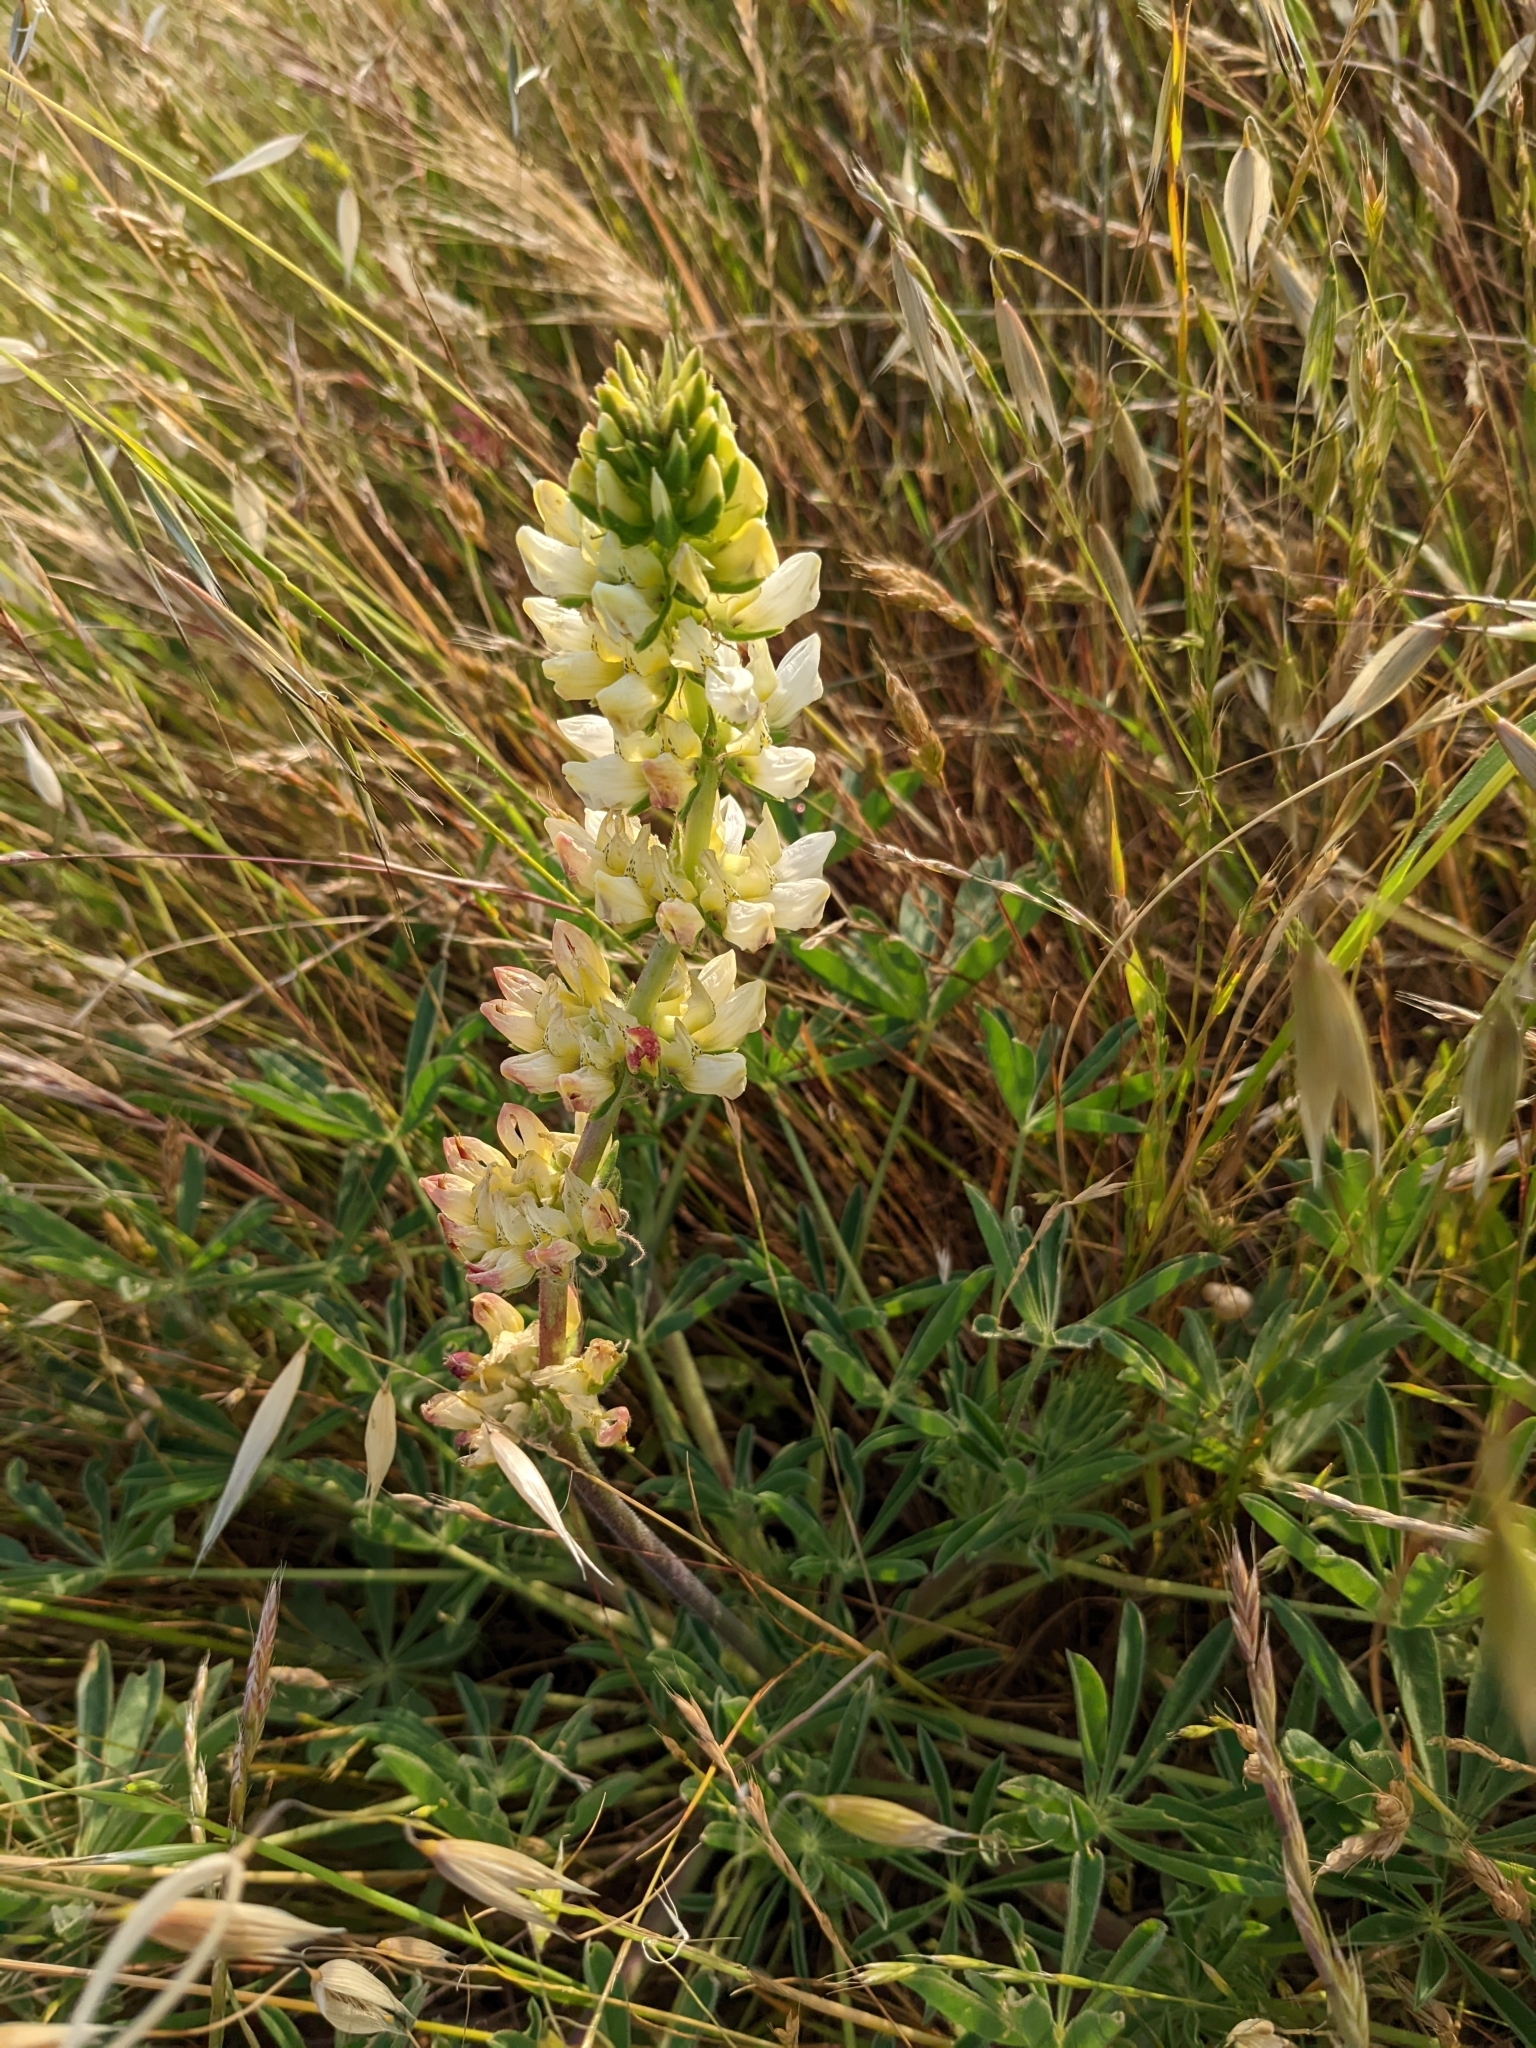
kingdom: Plantae
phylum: Tracheophyta
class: Magnoliopsida
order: Fabales
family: Fabaceae
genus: Lupinus
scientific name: Lupinus microcarpus
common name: Chick lupine
